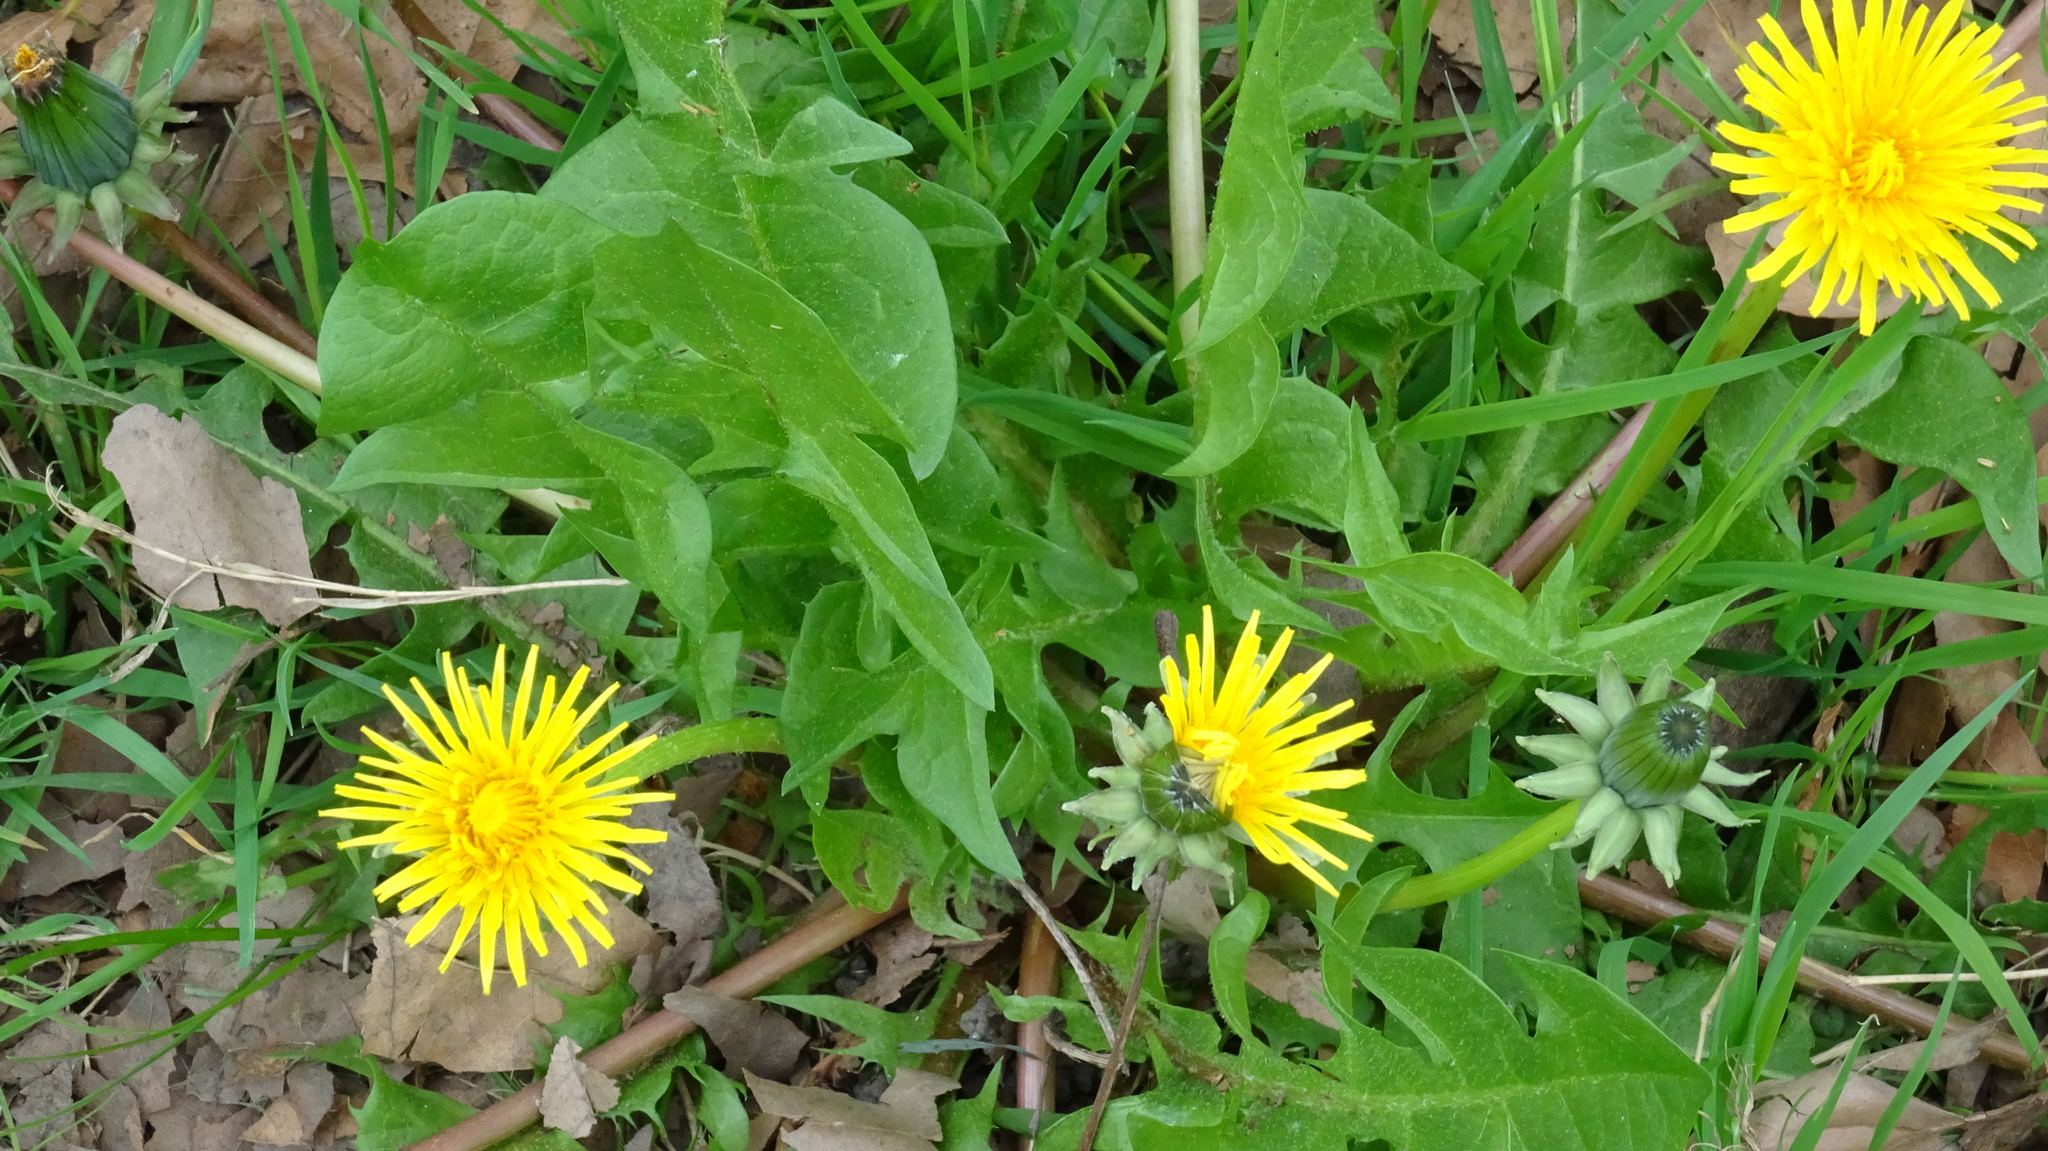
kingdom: Plantae
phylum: Tracheophyta
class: Magnoliopsida
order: Asterales
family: Asteraceae
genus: Taraxacum
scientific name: Taraxacum officinale
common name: Common dandelion
